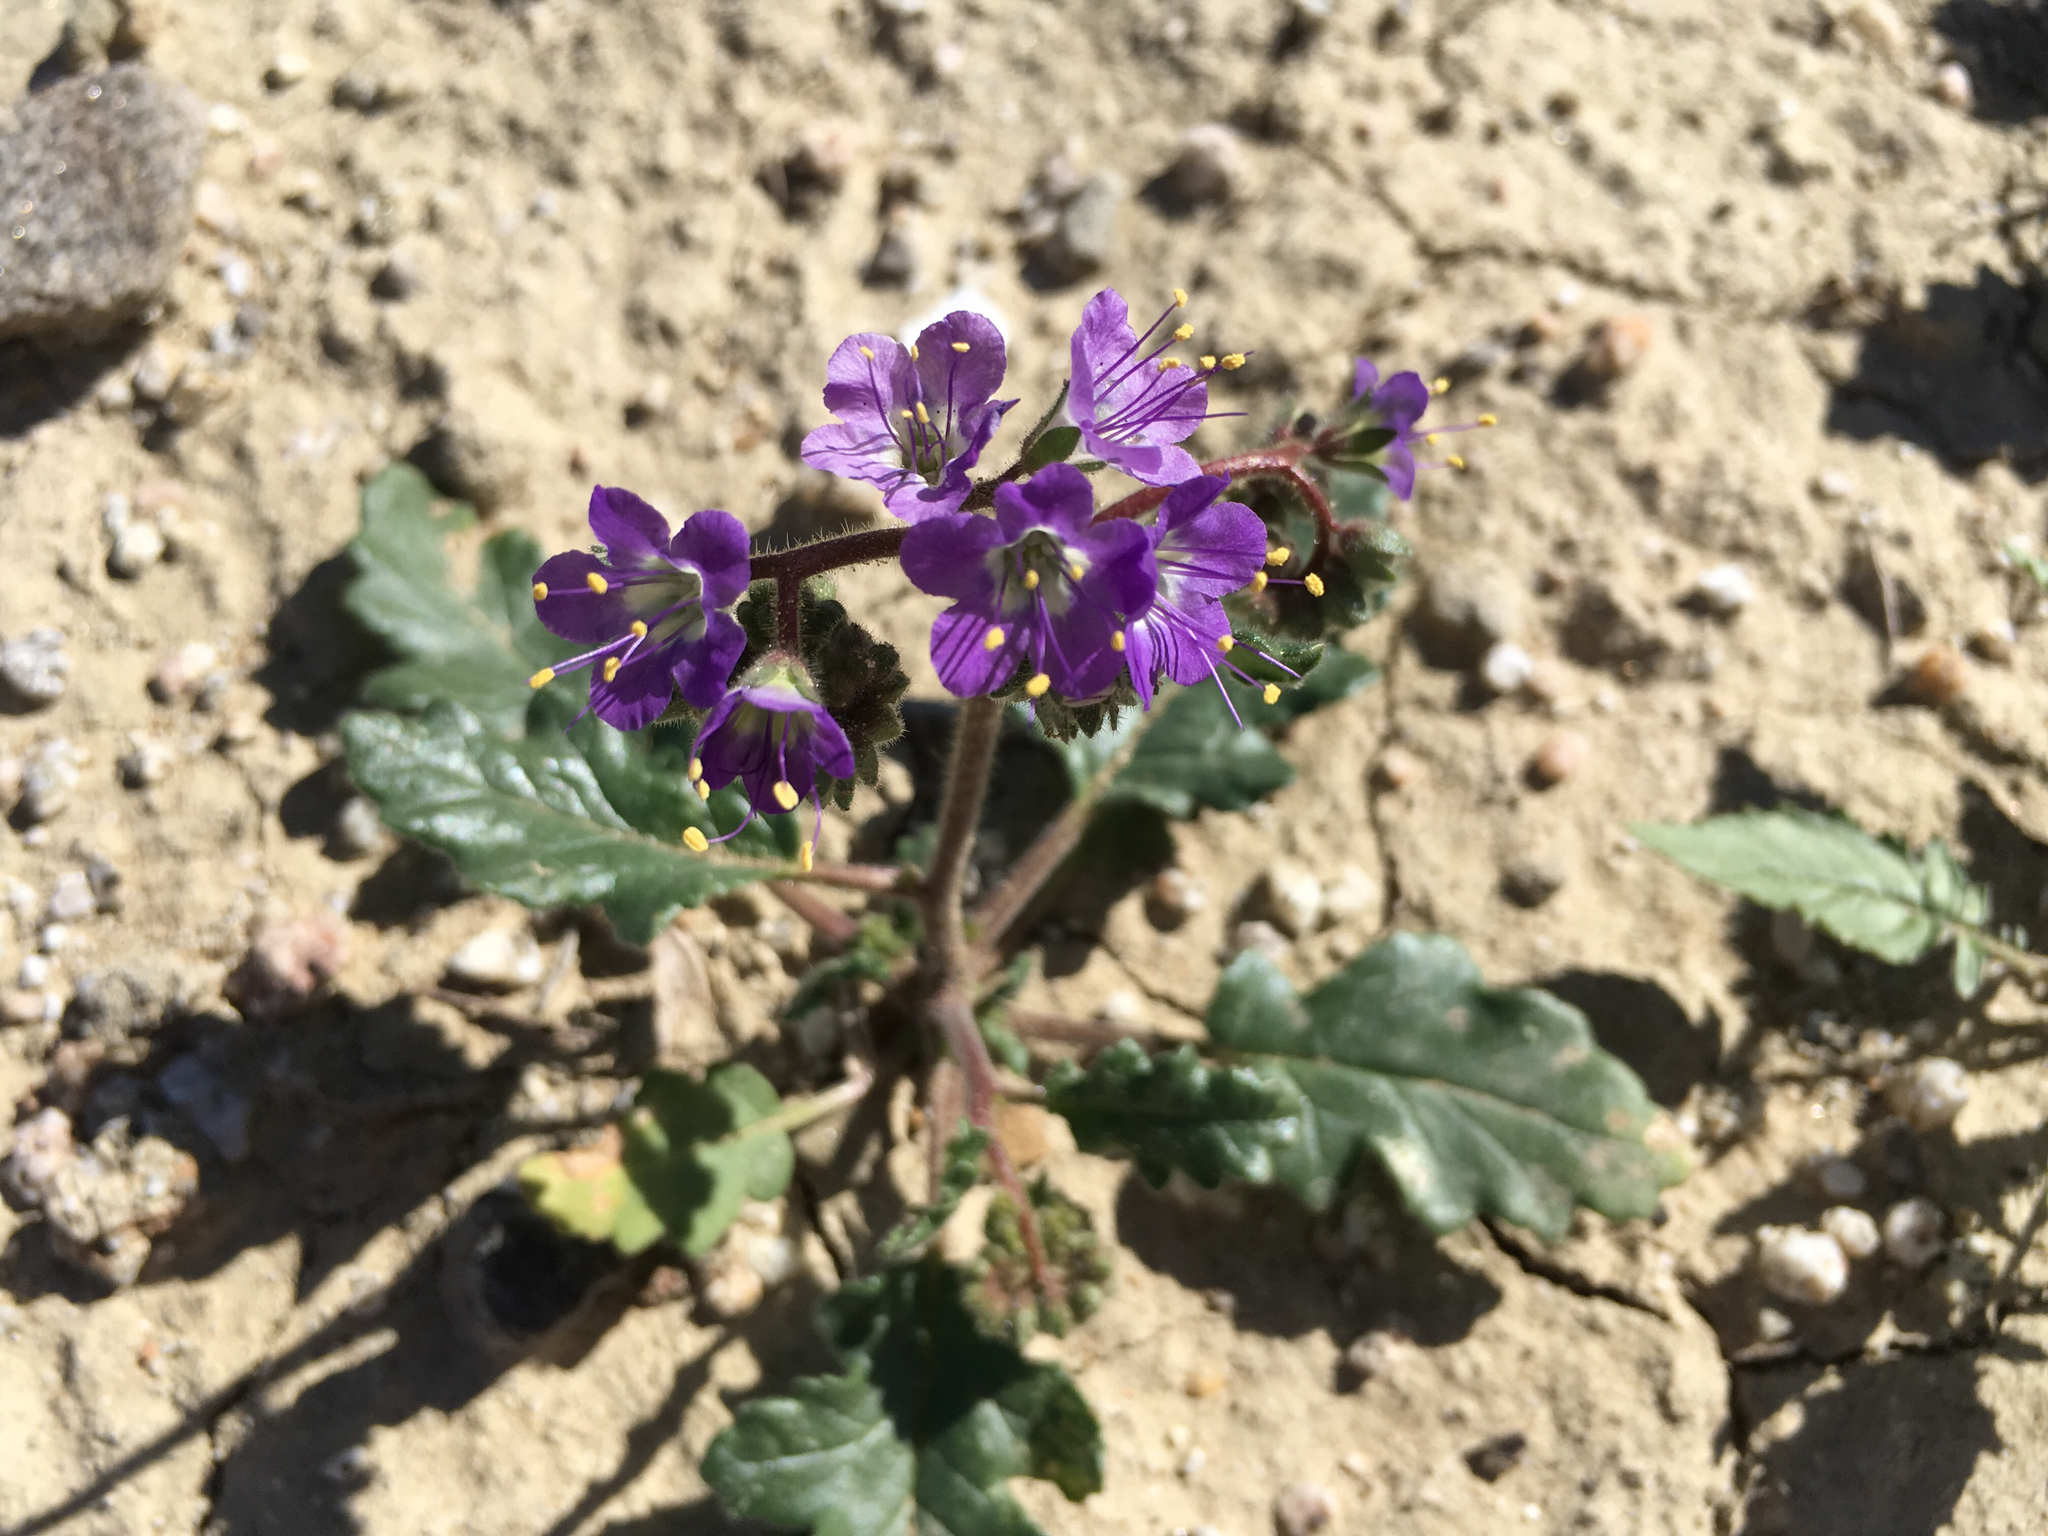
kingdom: Plantae
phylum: Tracheophyta
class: Magnoliopsida
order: Boraginales
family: Hydrophyllaceae
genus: Phacelia
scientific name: Phacelia crenulata
